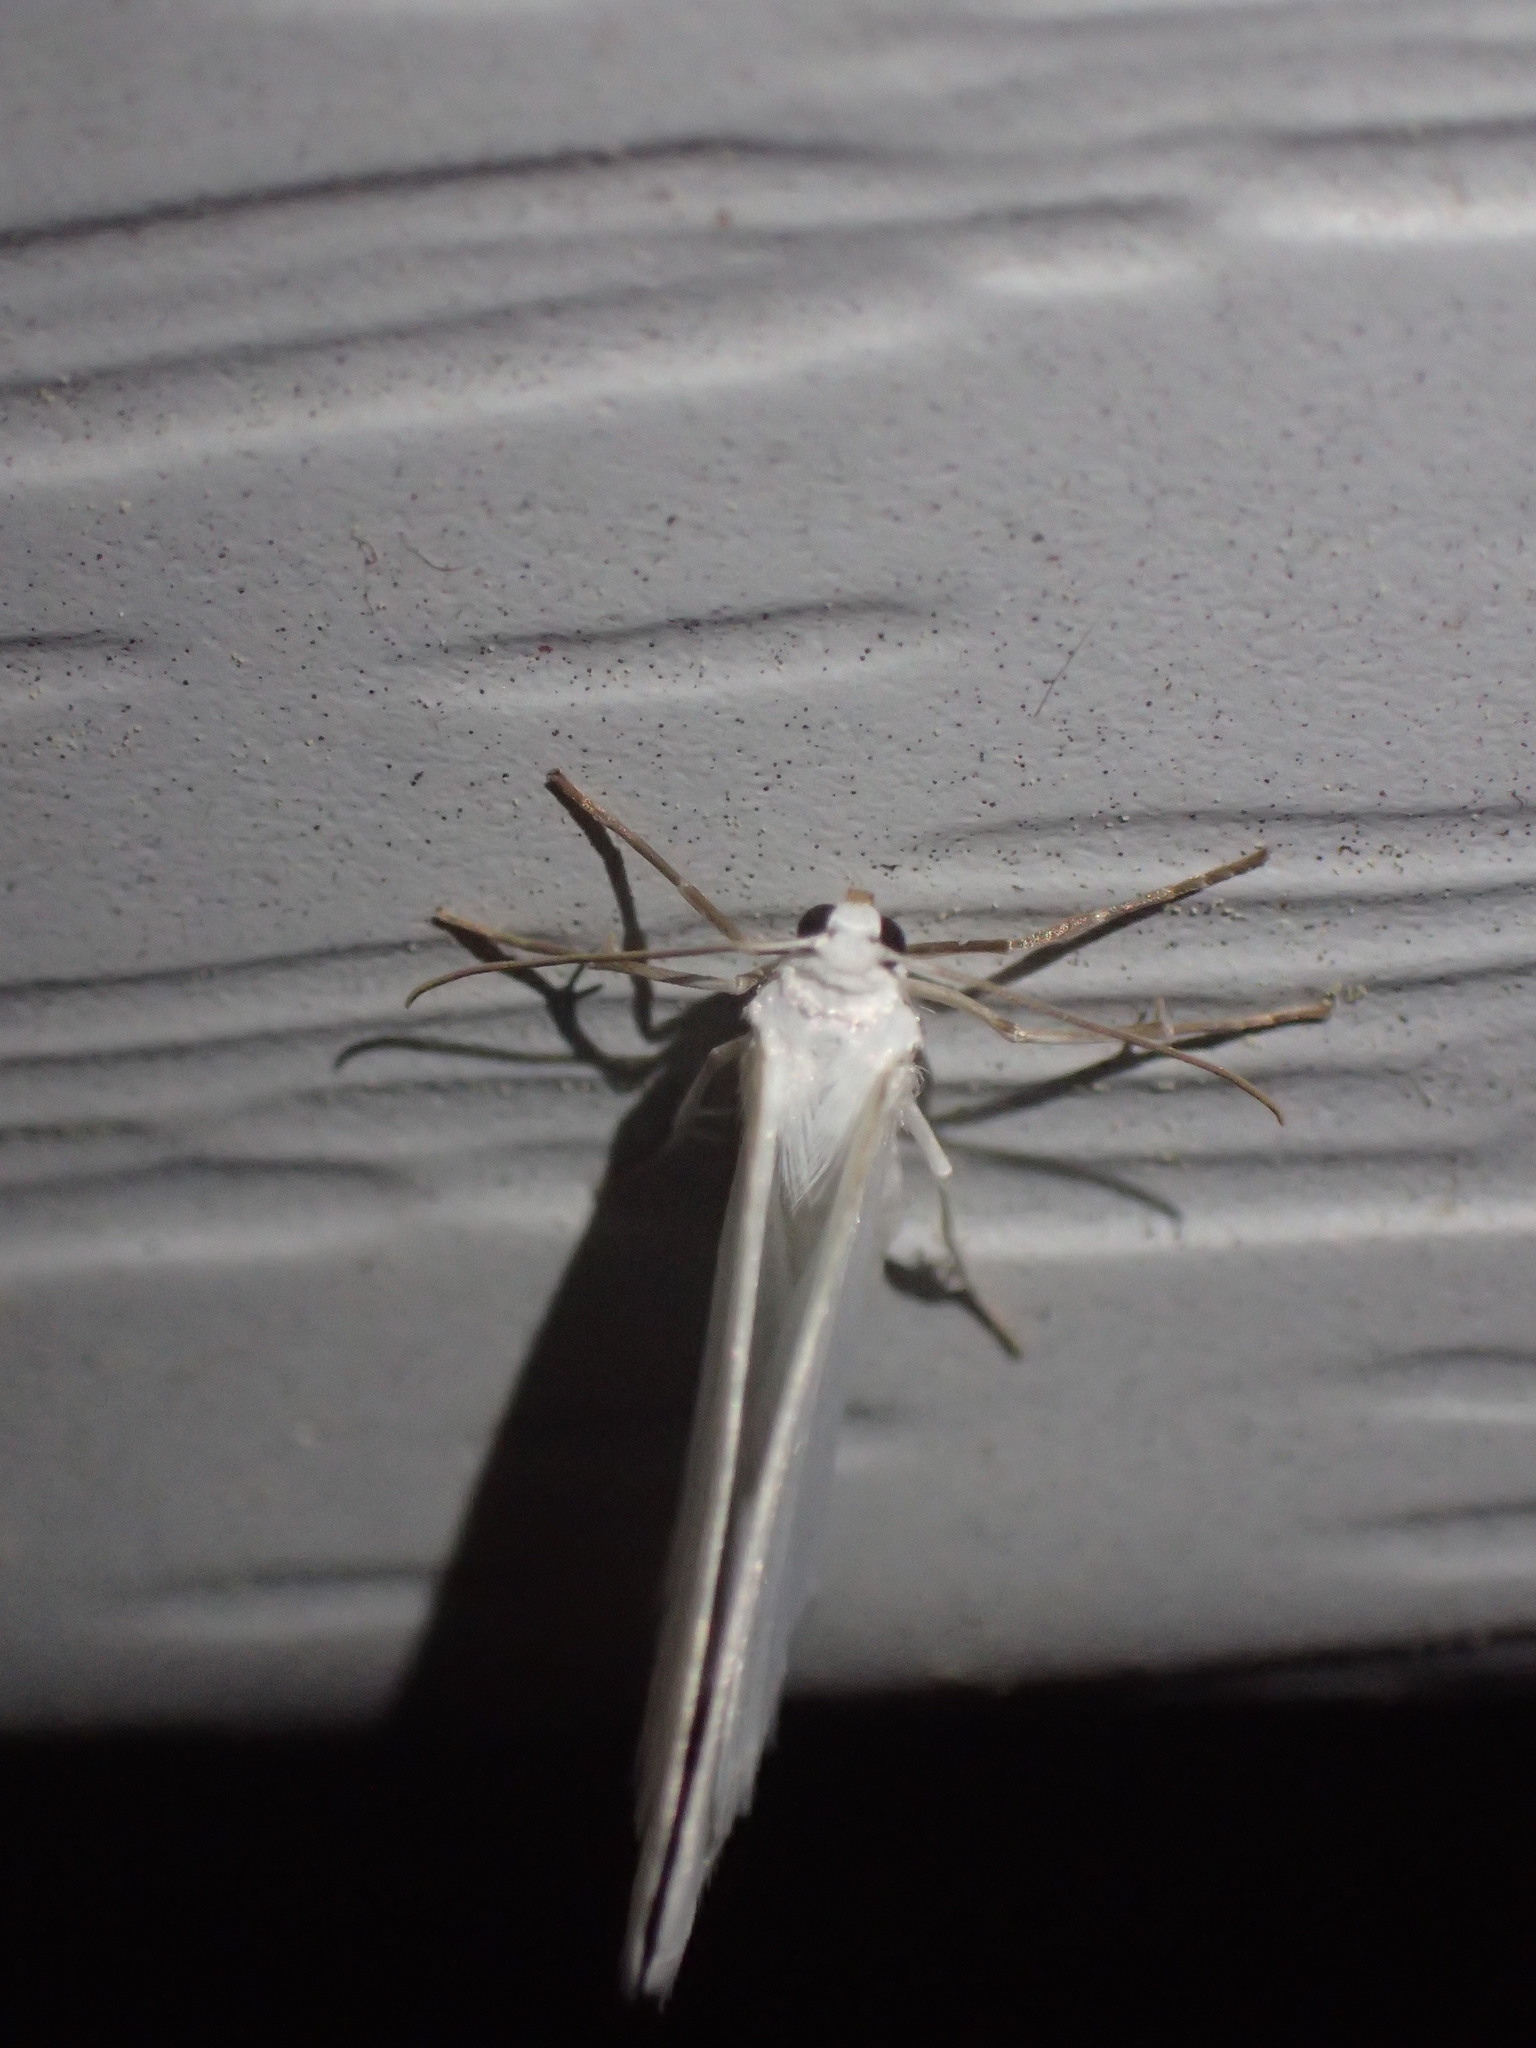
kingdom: Animalia
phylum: Arthropoda
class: Insecta
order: Lepidoptera
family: Geometridae
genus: Lomographa
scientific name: Lomographa vestaliata
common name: White spring moth
